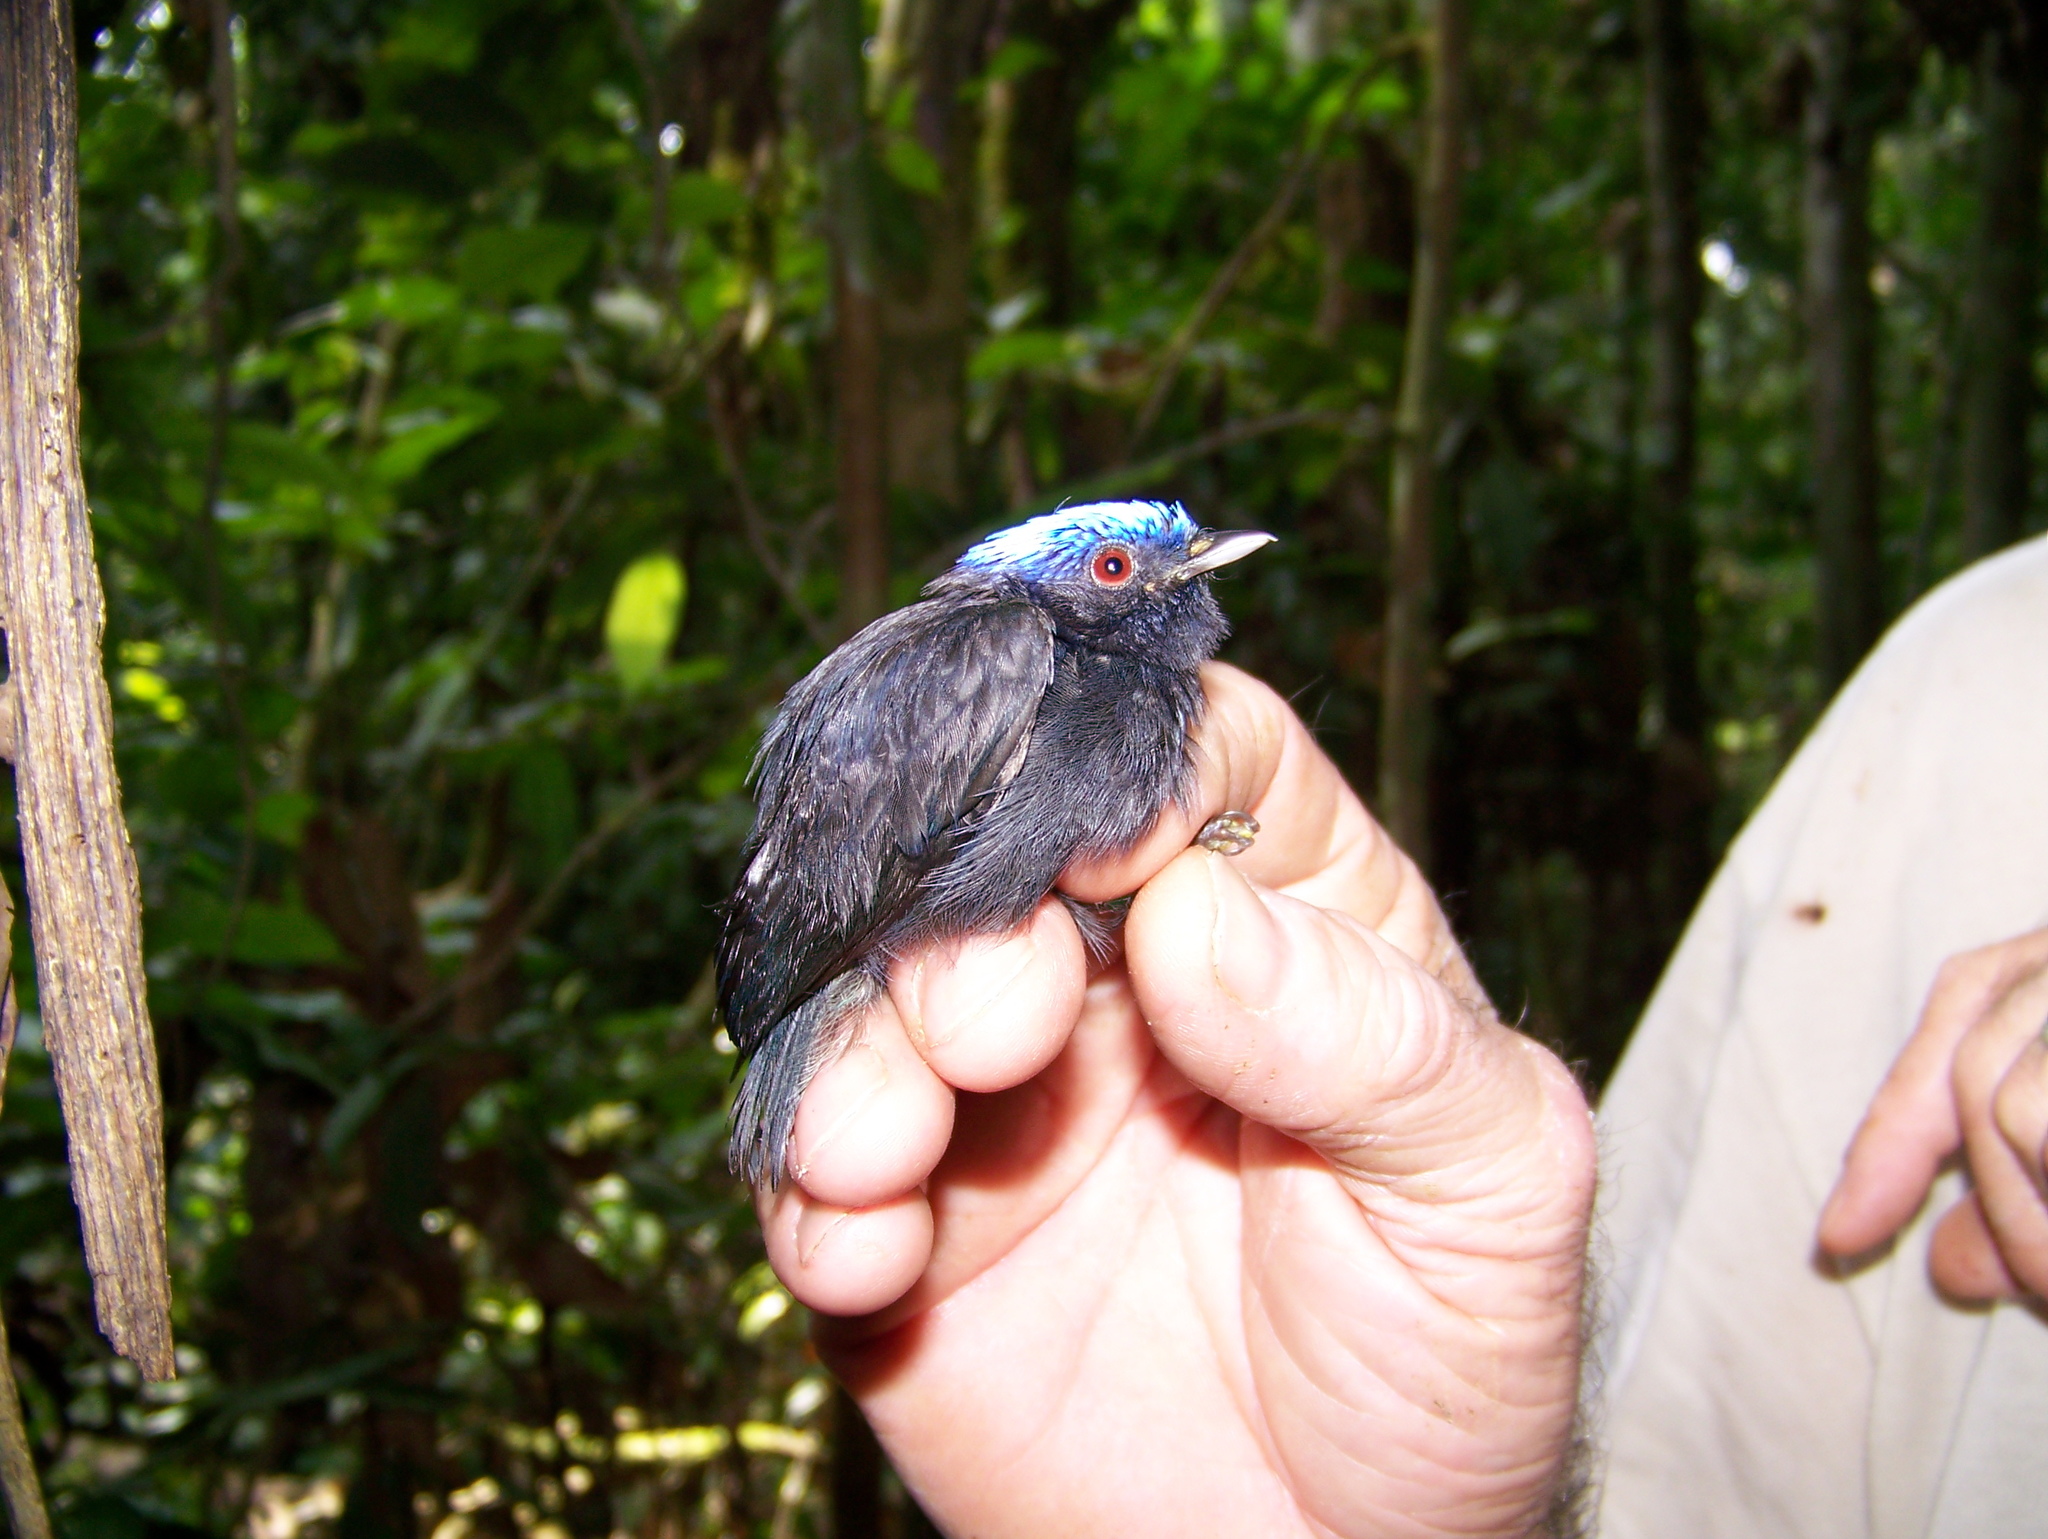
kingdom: Animalia
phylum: Chordata
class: Aves
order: Passeriformes
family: Pipridae
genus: Lepidothrix
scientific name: Lepidothrix coronata
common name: Blue-crowned manakin
